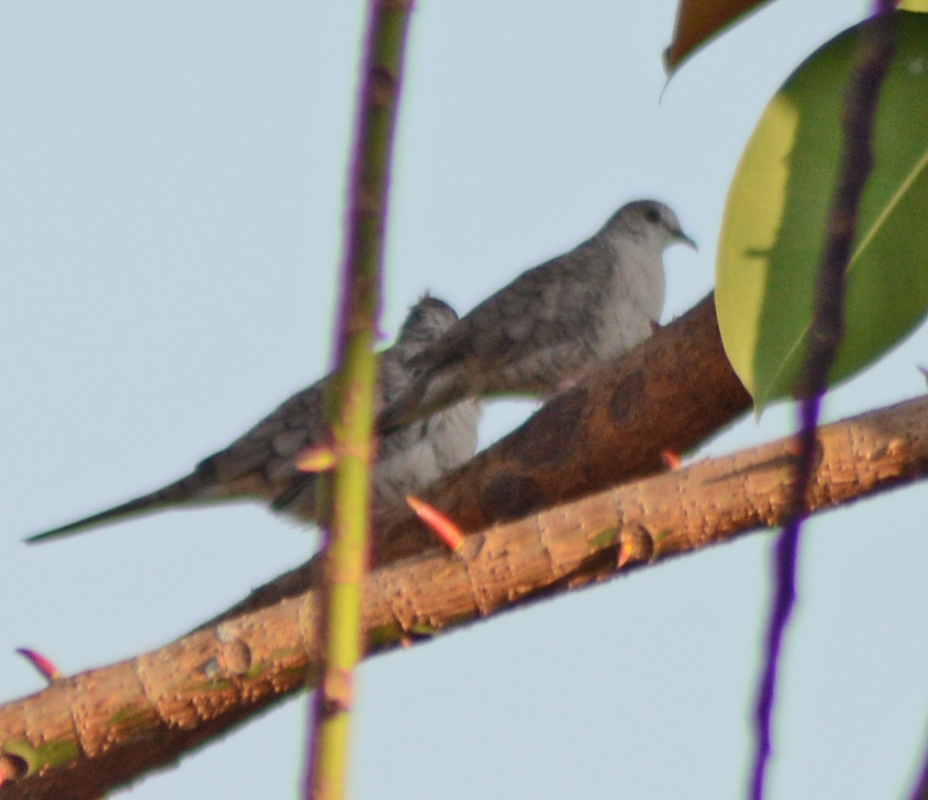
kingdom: Animalia
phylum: Chordata
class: Aves
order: Columbiformes
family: Columbidae
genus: Columbina
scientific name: Columbina inca
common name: Inca dove
